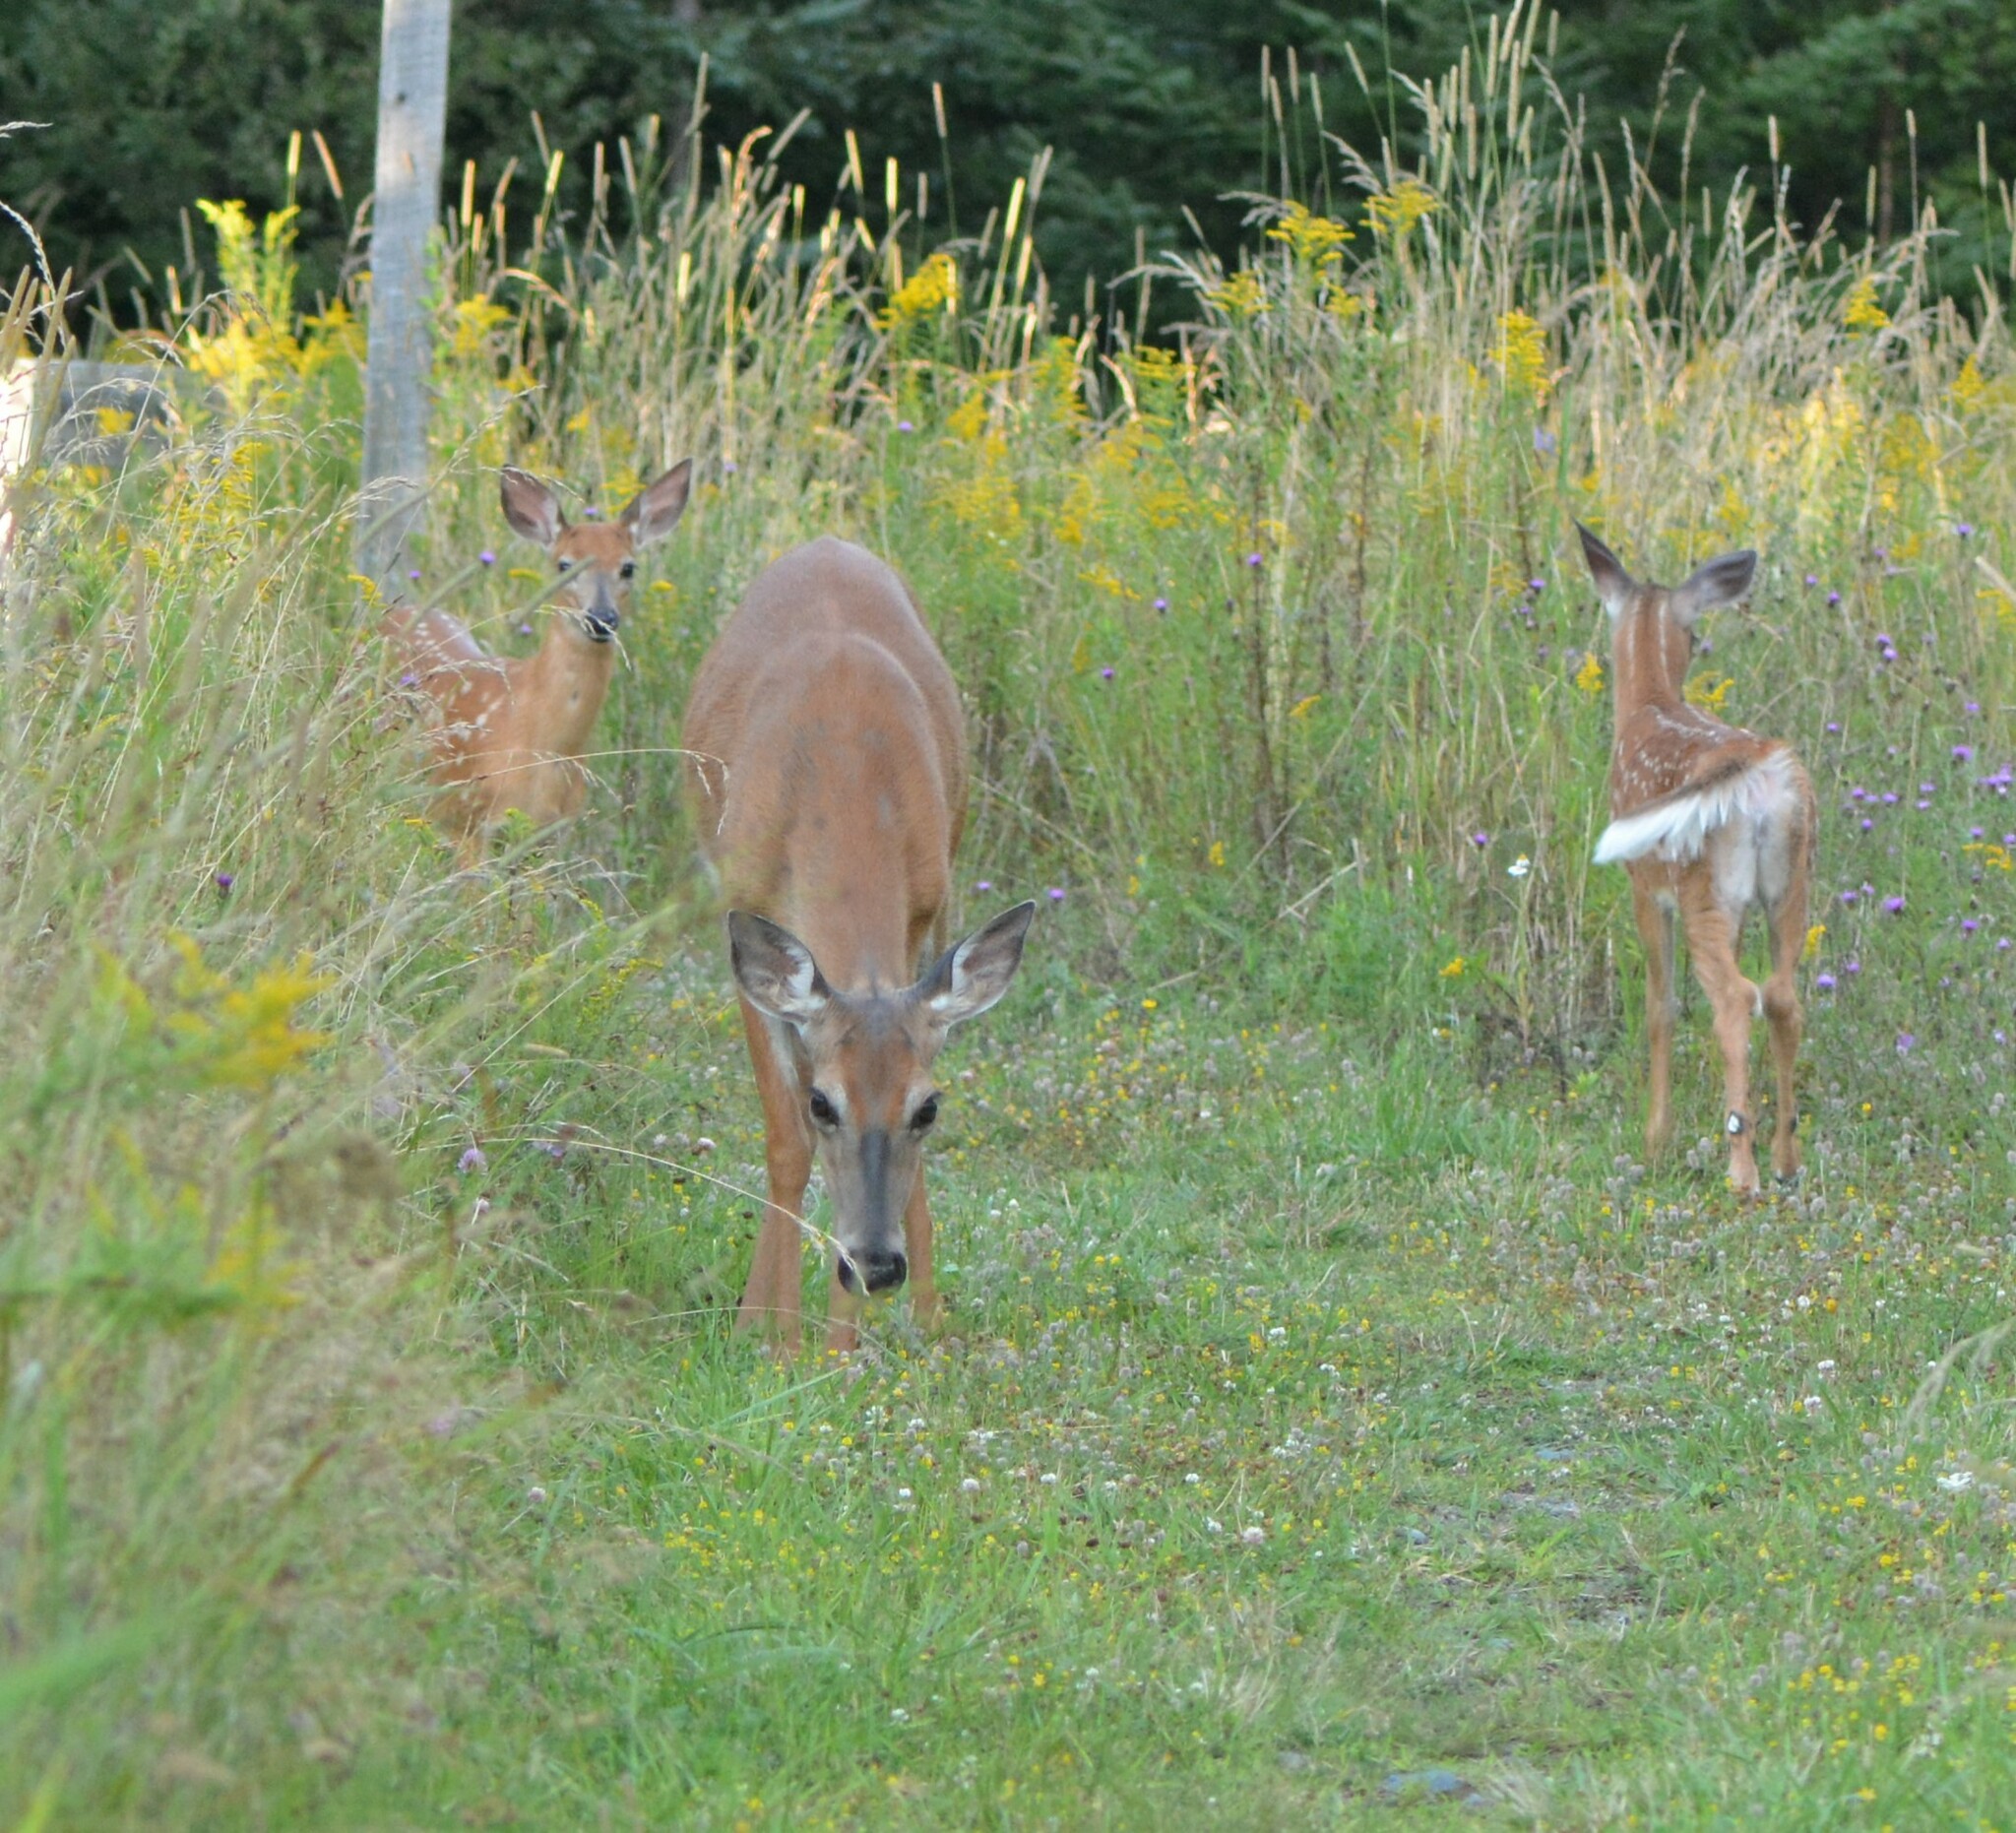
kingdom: Animalia
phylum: Chordata
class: Mammalia
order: Artiodactyla
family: Cervidae
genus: Odocoileus
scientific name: Odocoileus virginianus
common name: White-tailed deer
